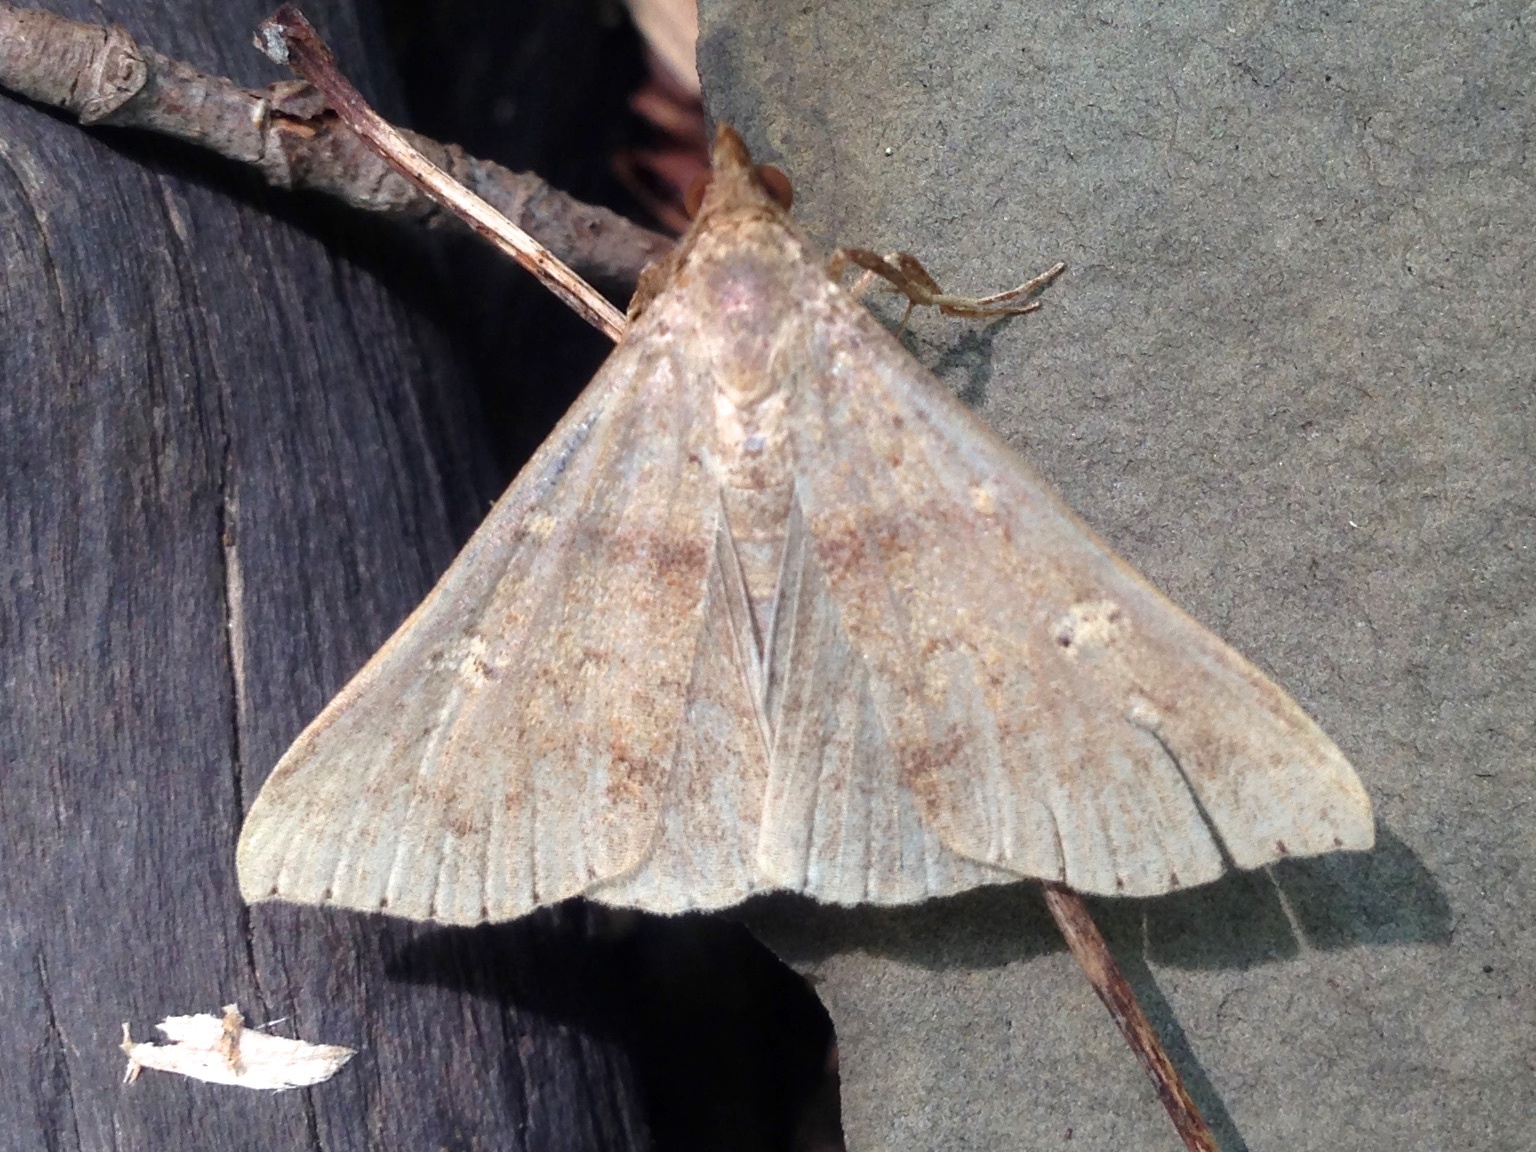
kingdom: Animalia
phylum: Arthropoda
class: Insecta
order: Lepidoptera
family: Erebidae
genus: Renia
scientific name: Renia discoloralis
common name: Discolored renia moth
